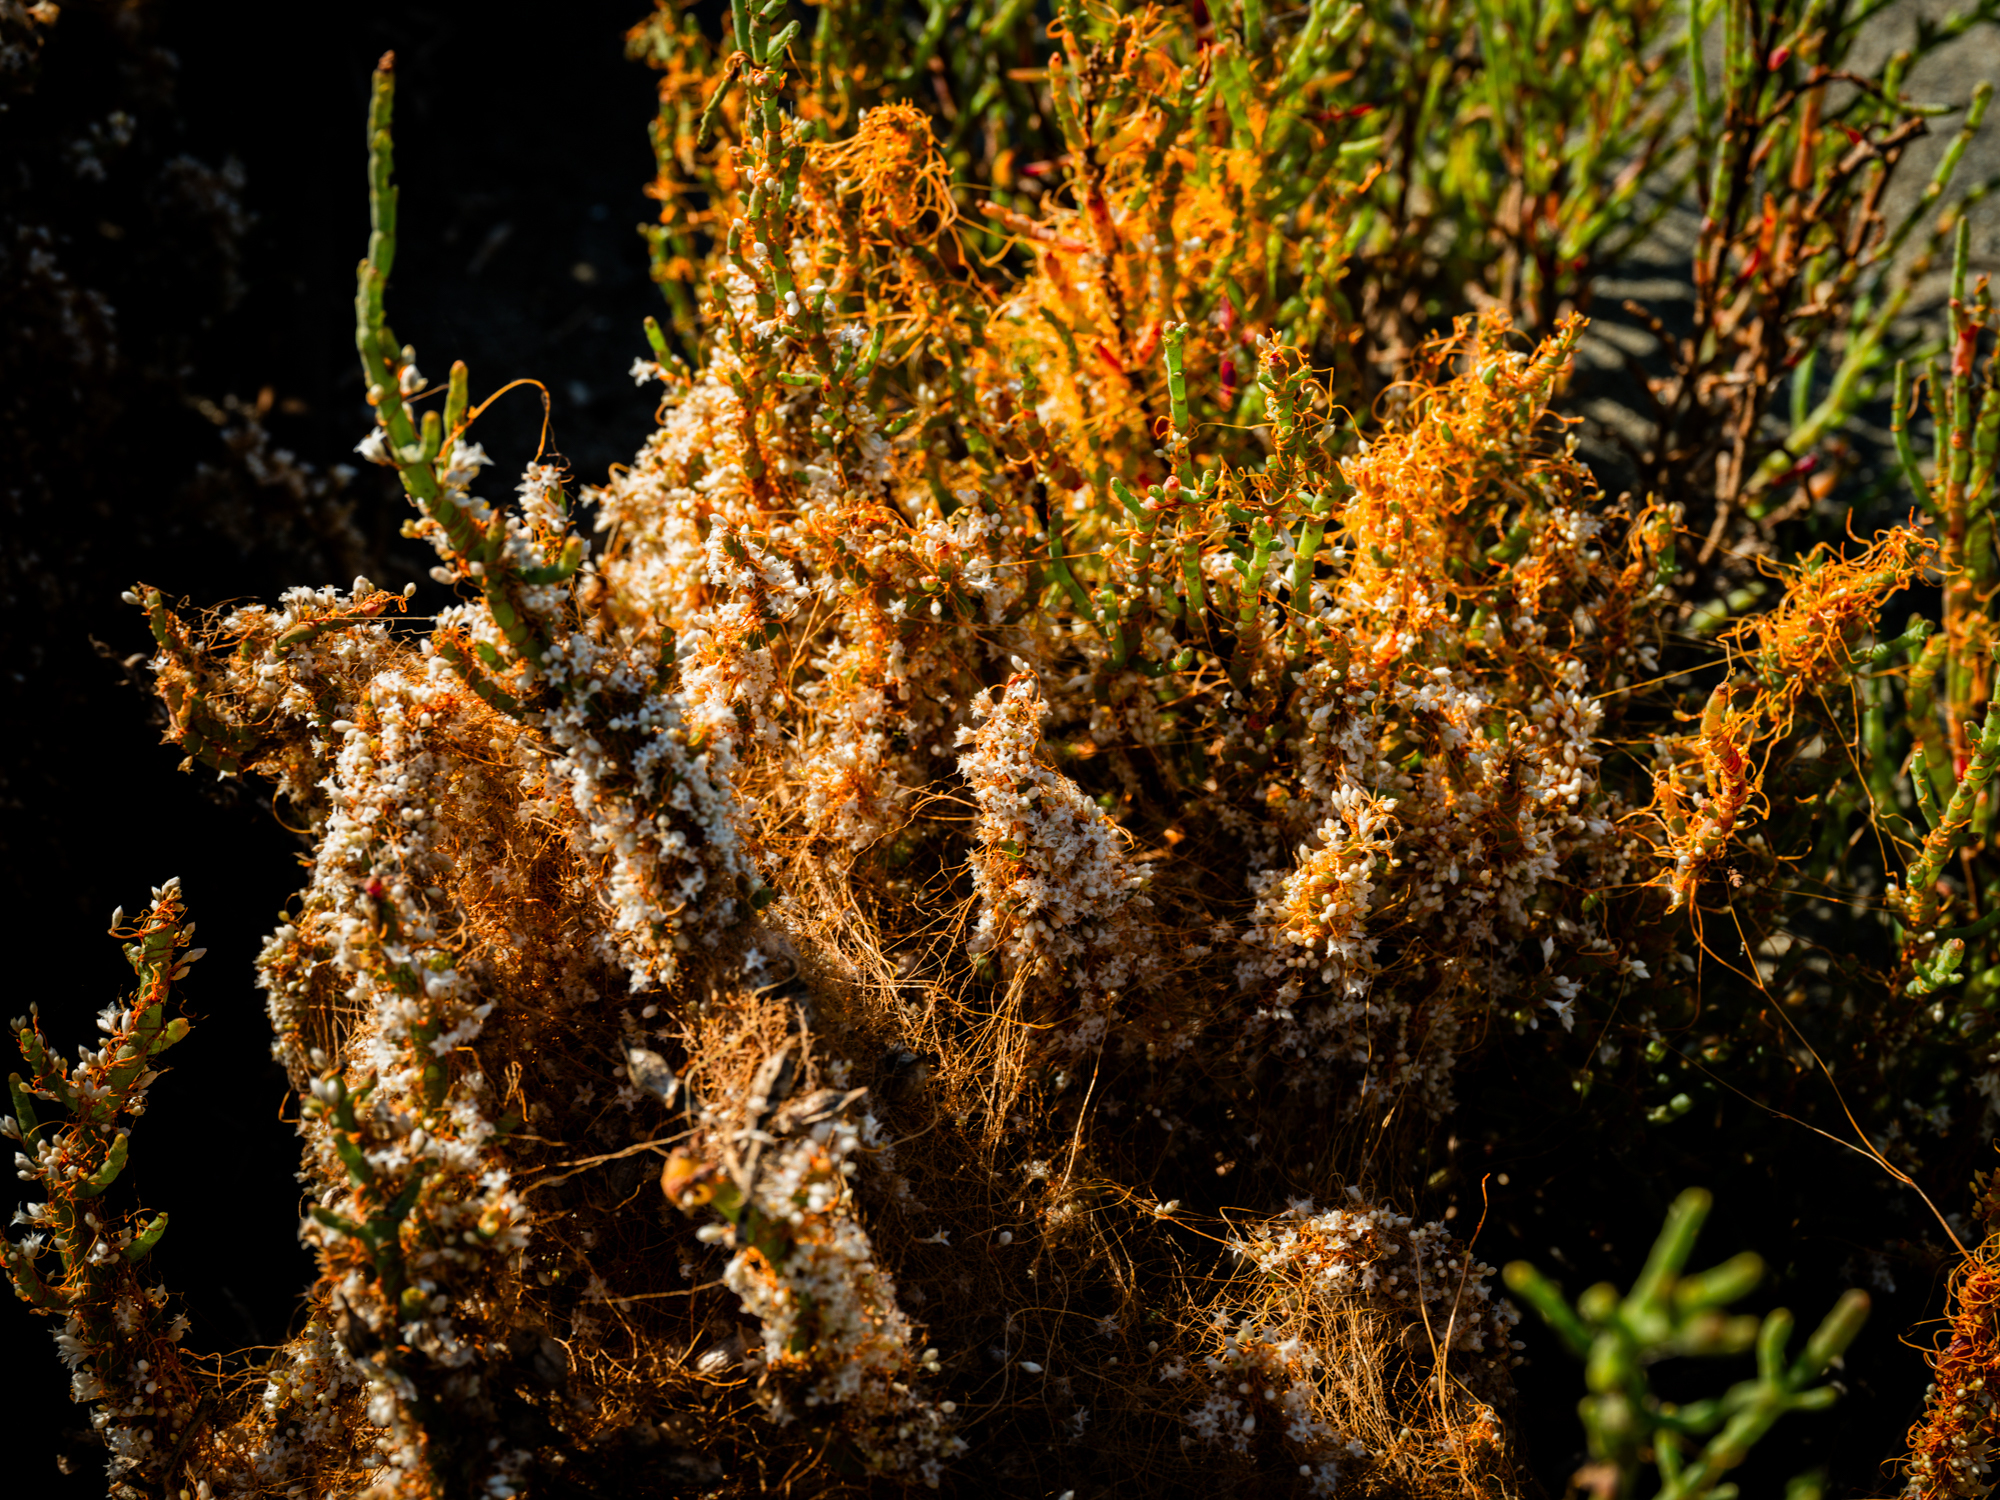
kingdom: Plantae
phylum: Tracheophyta
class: Magnoliopsida
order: Solanales
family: Convolvulaceae
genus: Cuscuta
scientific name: Cuscuta pacifica
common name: Large saltmarsh dodder
